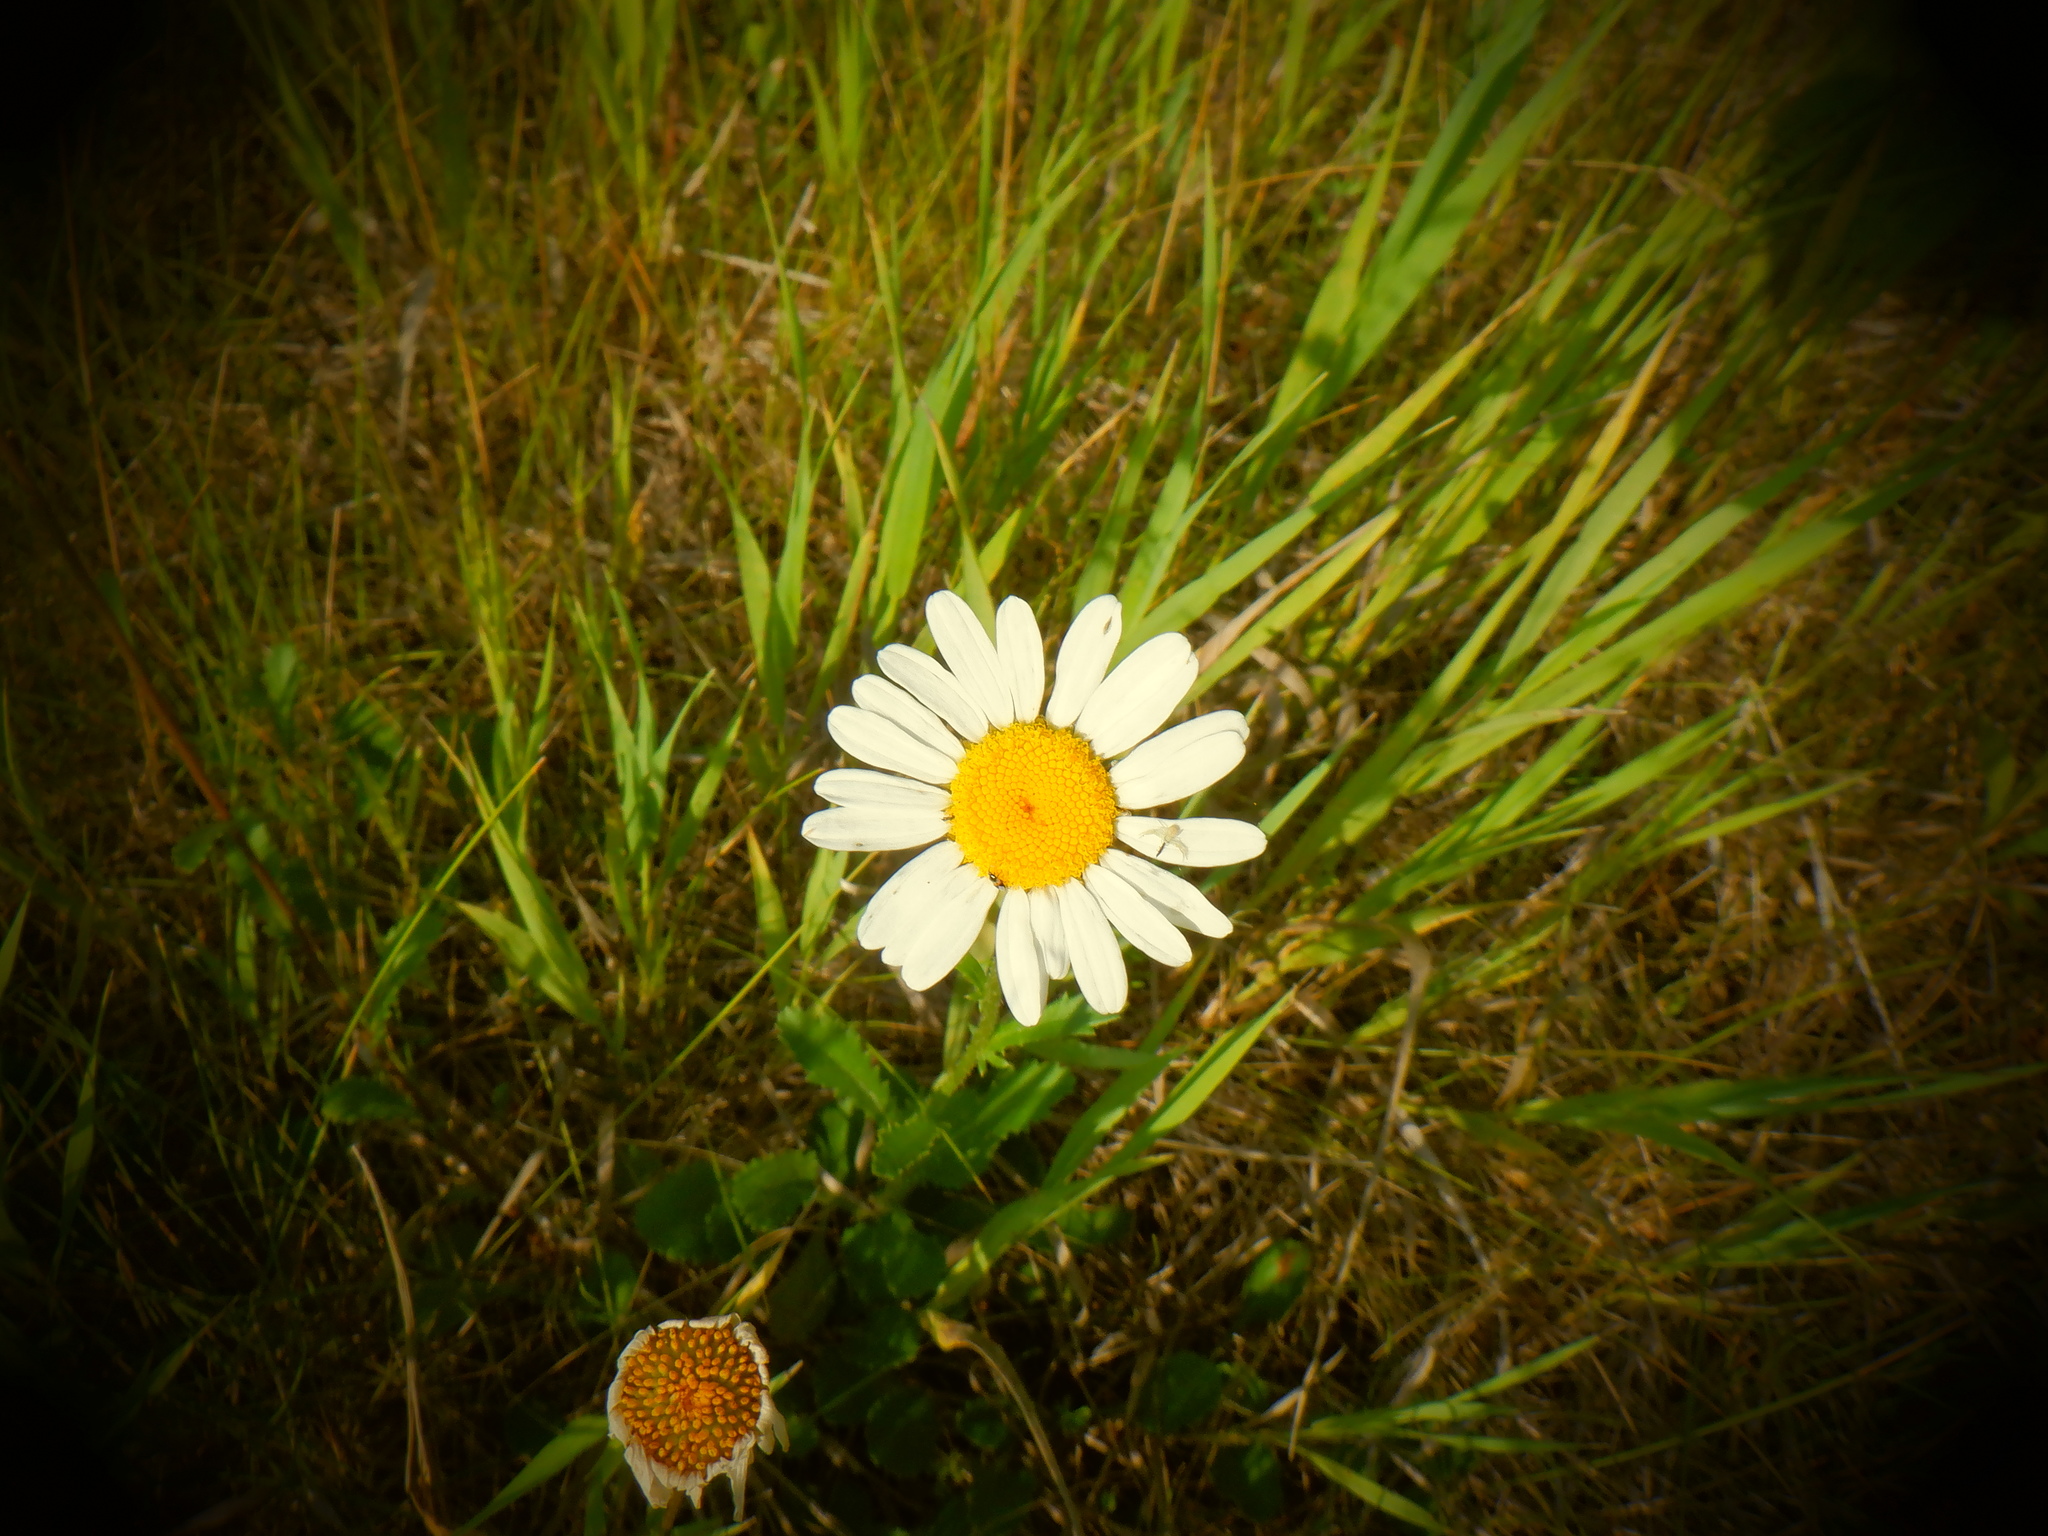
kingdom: Plantae
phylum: Tracheophyta
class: Magnoliopsida
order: Asterales
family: Asteraceae
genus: Leucanthemum
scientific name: Leucanthemum vulgare
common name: Oxeye daisy
